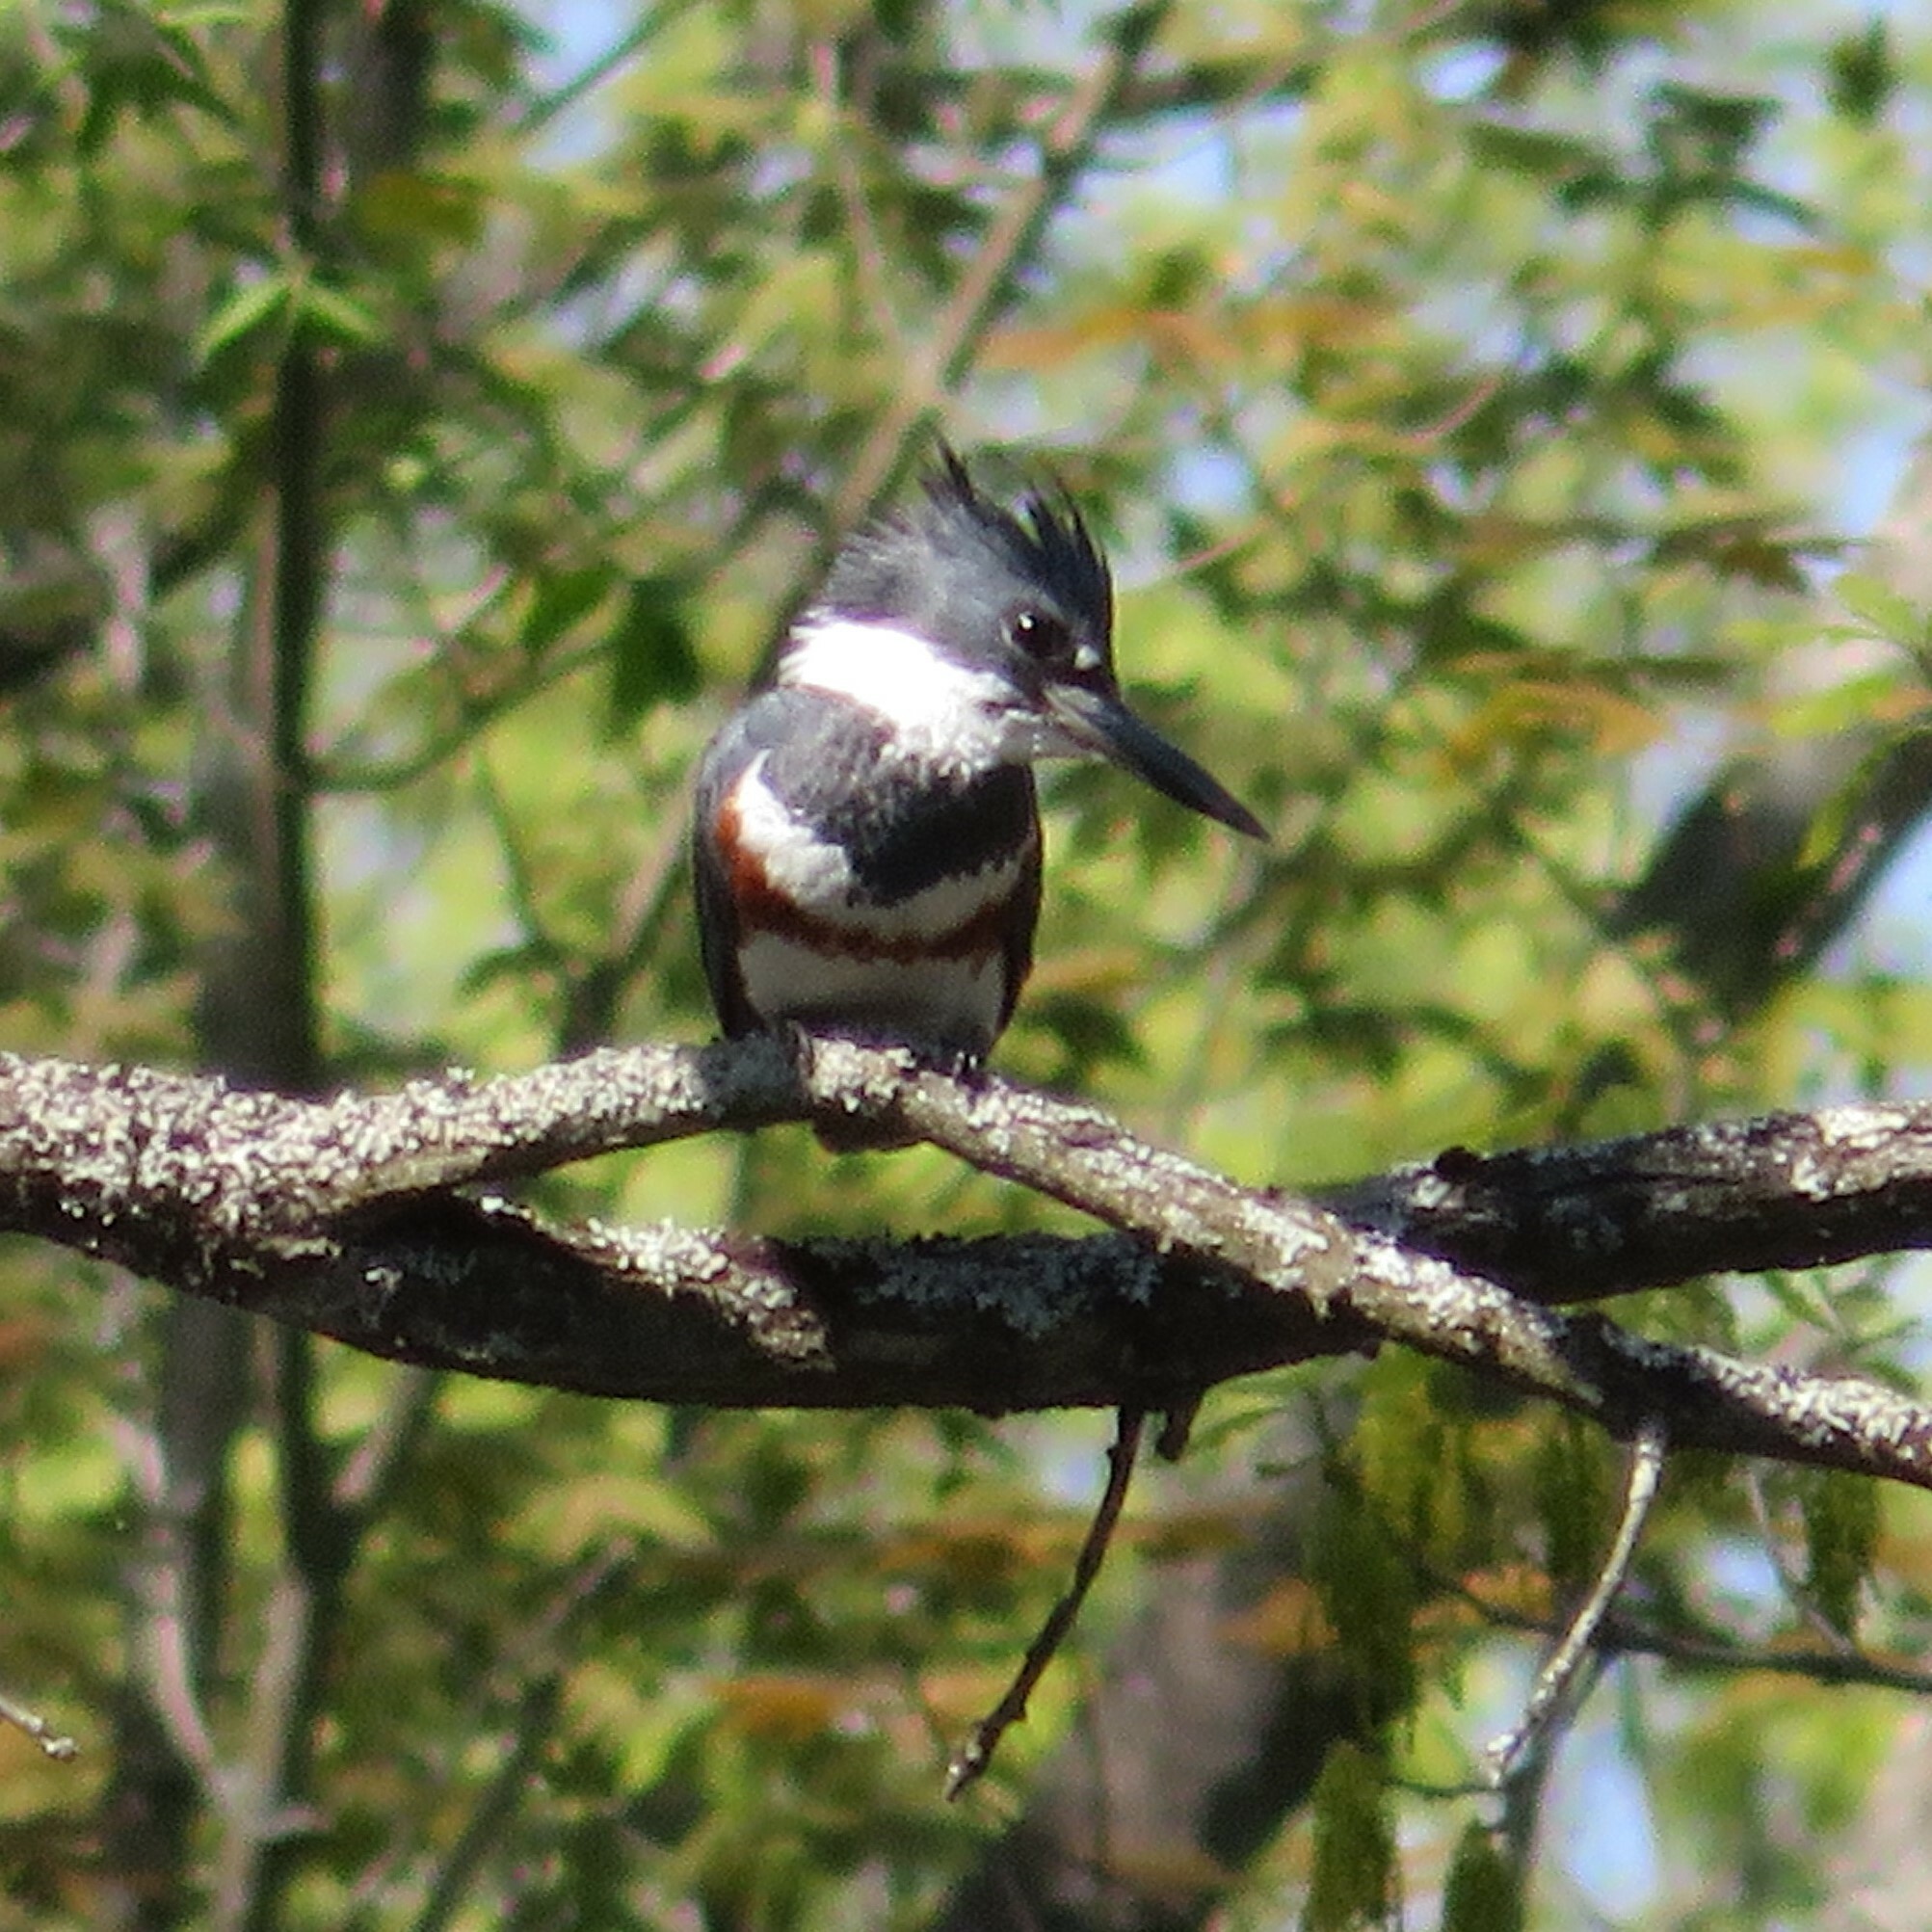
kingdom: Animalia
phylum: Chordata
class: Aves
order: Coraciiformes
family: Alcedinidae
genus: Megaceryle
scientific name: Megaceryle alcyon
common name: Belted kingfisher
